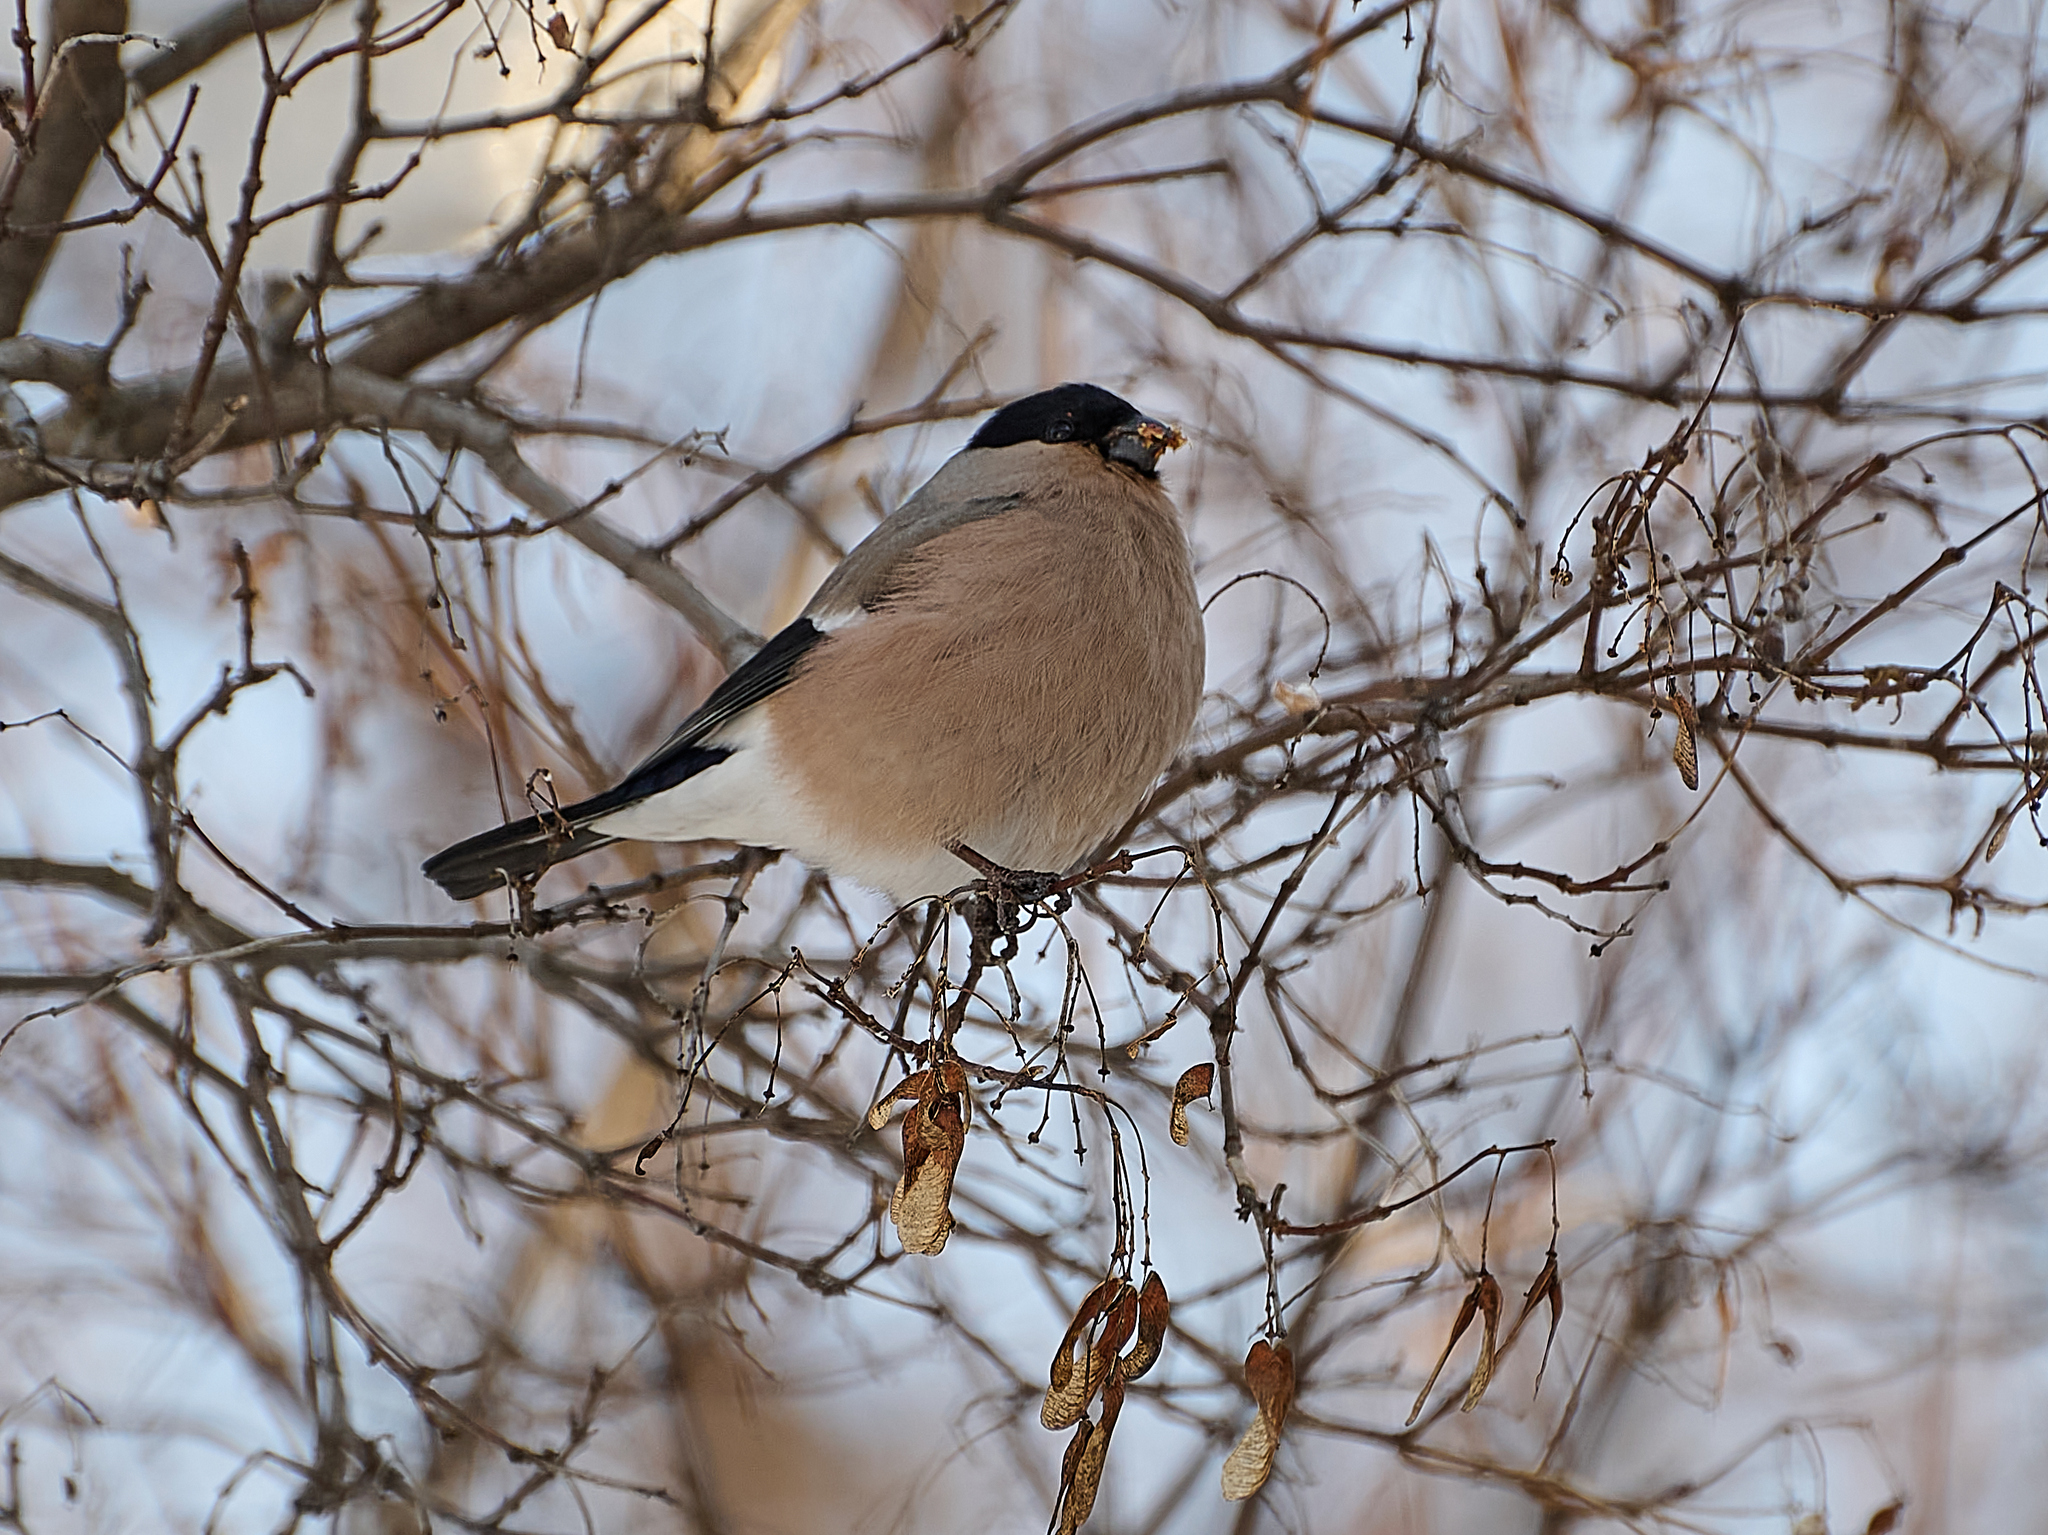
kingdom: Animalia
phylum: Chordata
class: Aves
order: Passeriformes
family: Fringillidae
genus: Pyrrhula
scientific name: Pyrrhula pyrrhula
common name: Eurasian bullfinch
